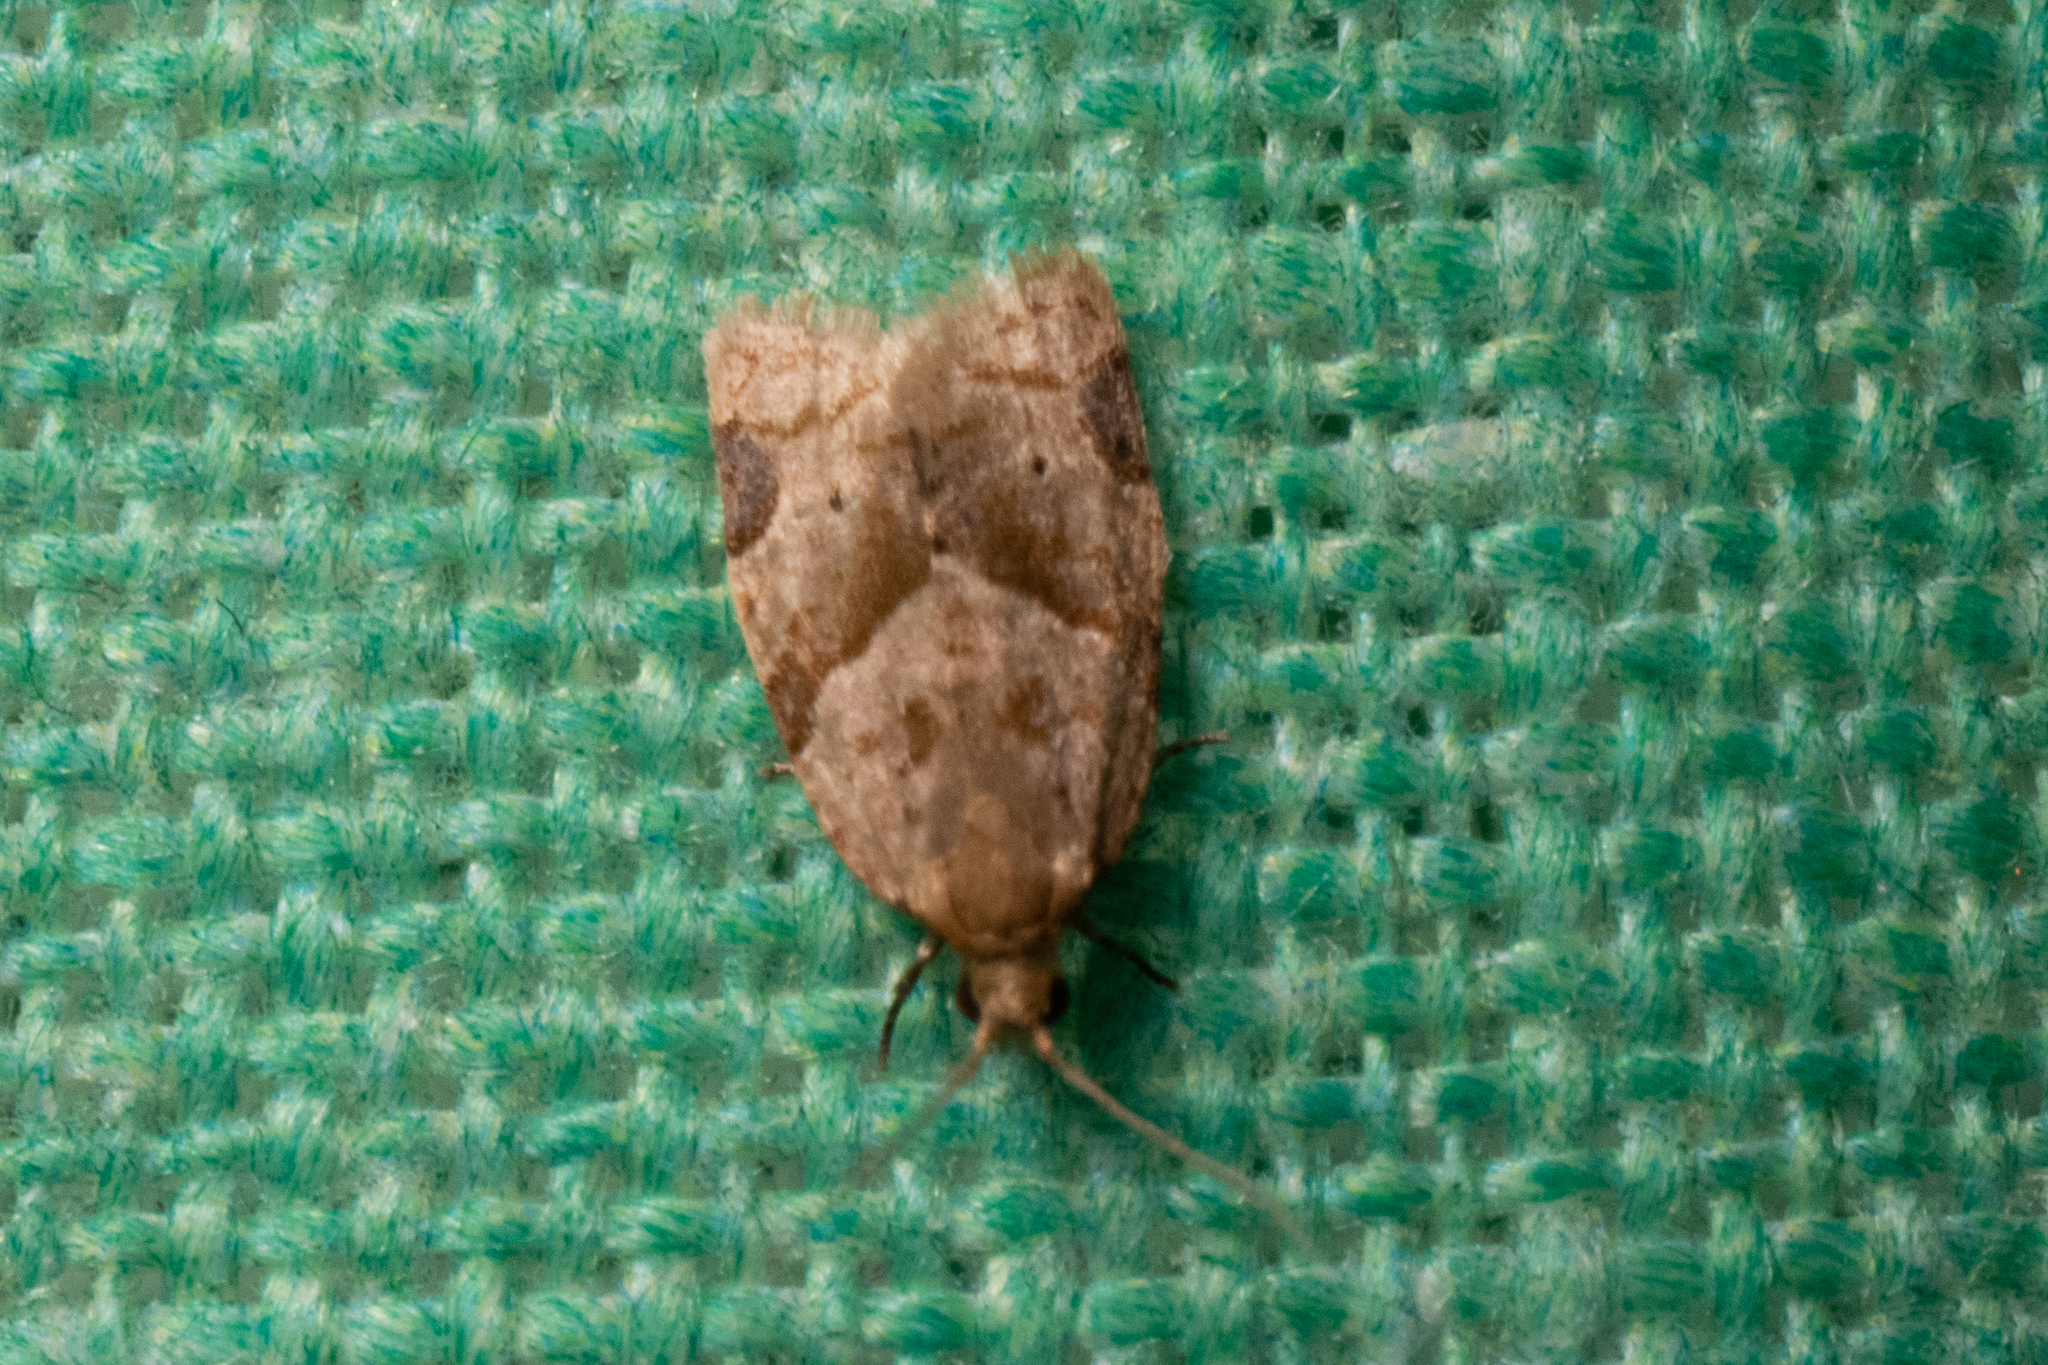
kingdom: Animalia
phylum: Arthropoda
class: Insecta
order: Lepidoptera
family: Tortricidae
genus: Clepsis
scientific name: Clepsis peritana
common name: Garden tortrix
